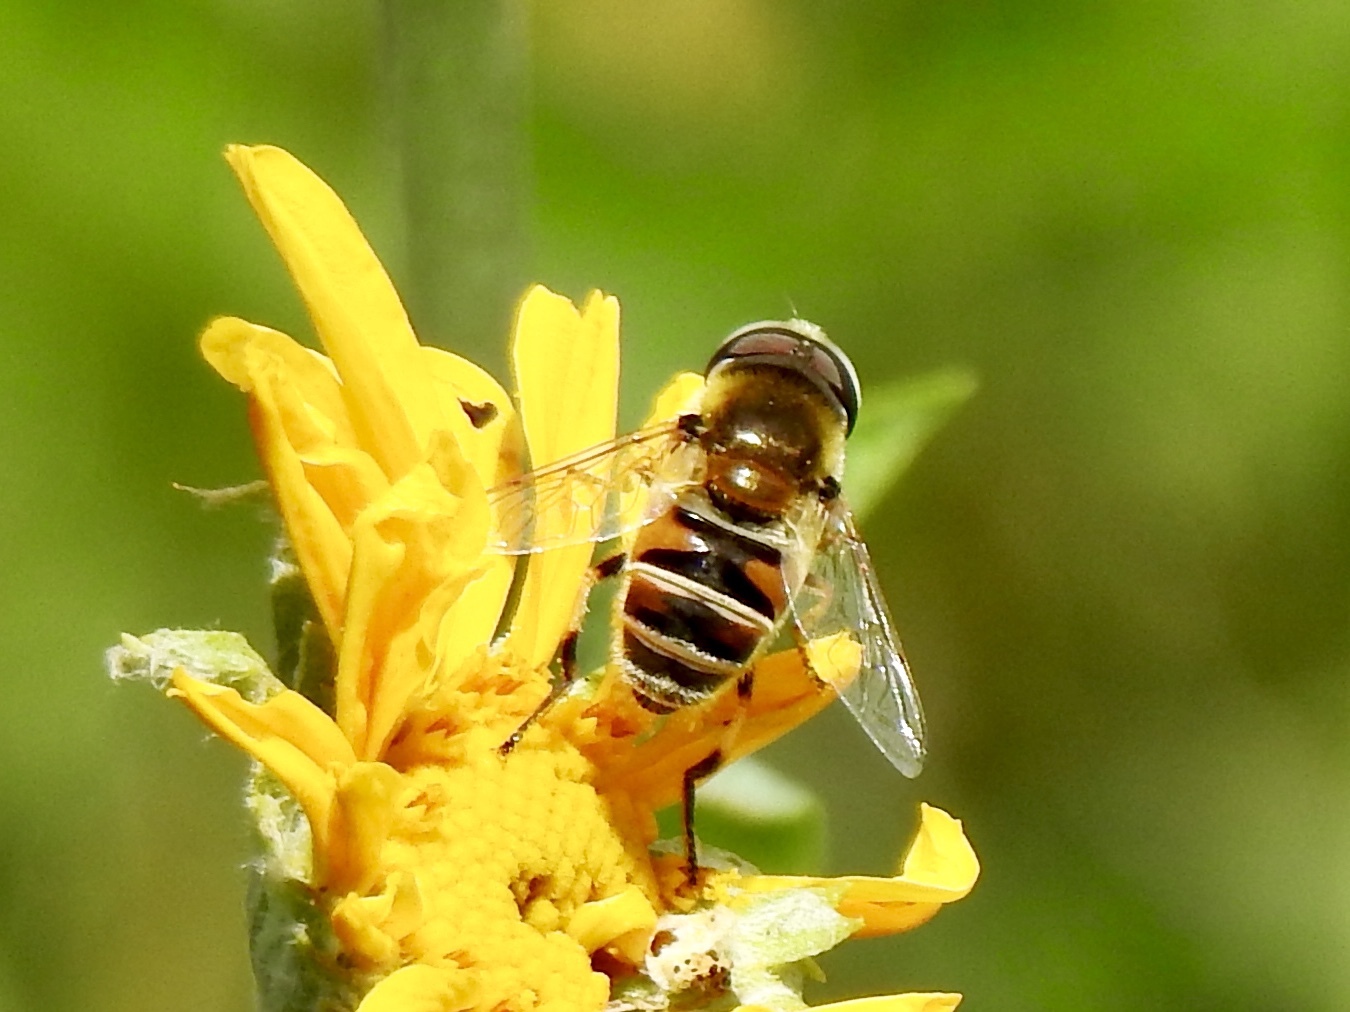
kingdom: Animalia
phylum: Arthropoda
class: Insecta
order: Diptera
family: Syrphidae
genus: Eristalis
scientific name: Eristalis stipator
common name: Yellow-shouldered drone fly
